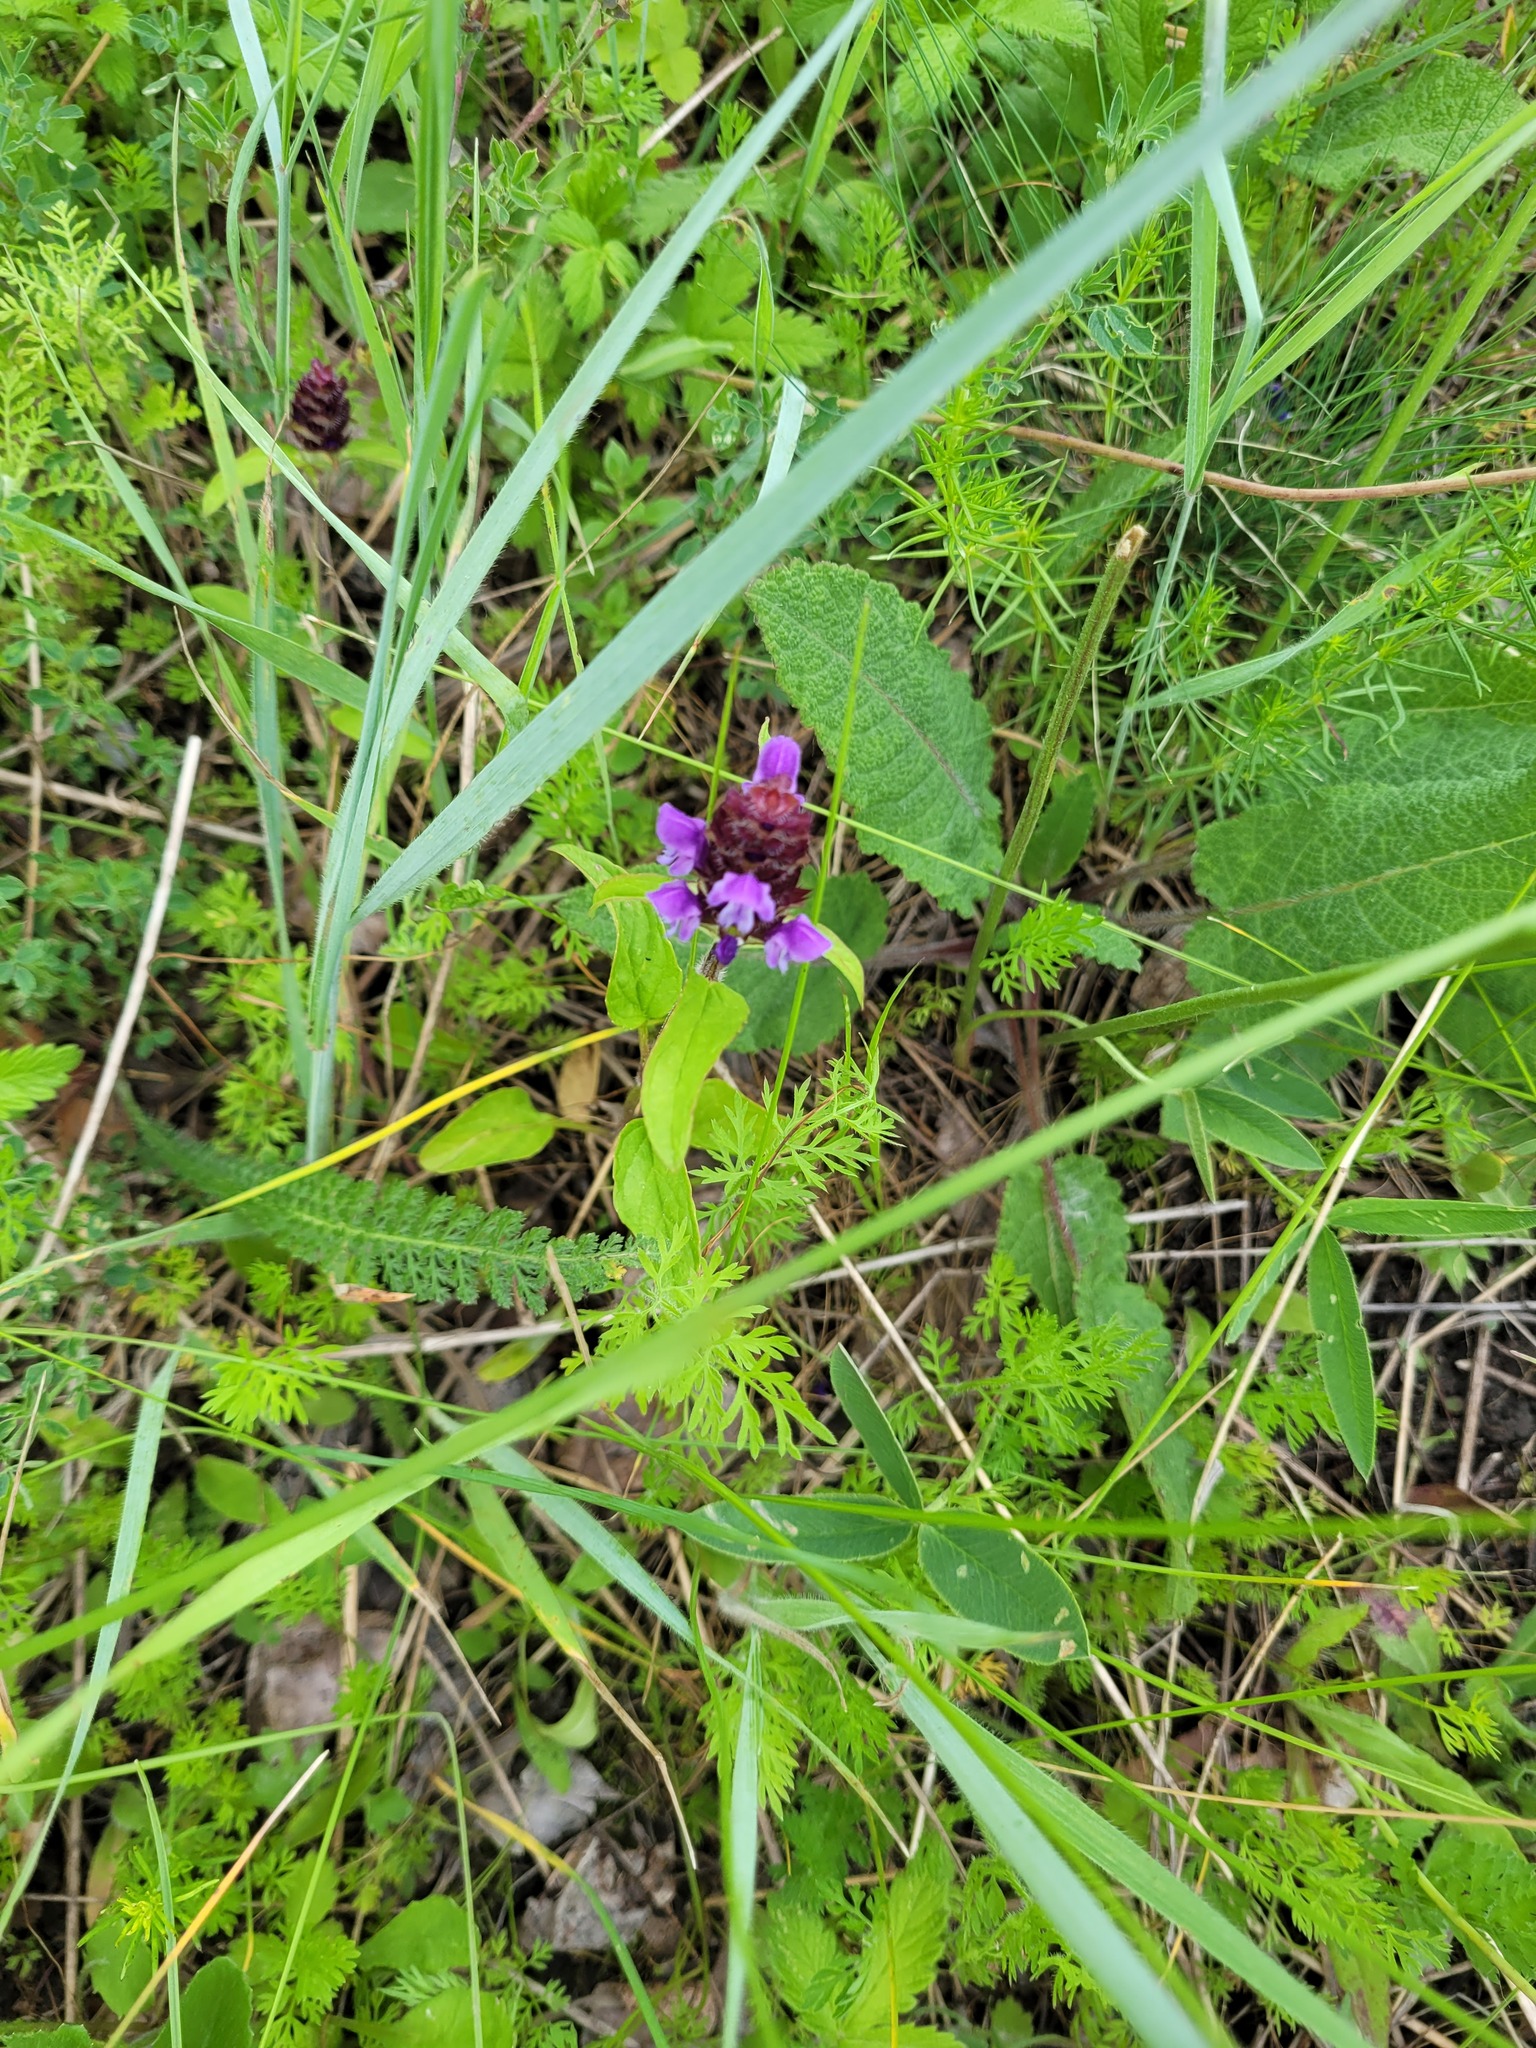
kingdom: Plantae
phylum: Tracheophyta
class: Magnoliopsida
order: Lamiales
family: Lamiaceae
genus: Prunella
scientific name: Prunella vulgaris
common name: Heal-all
